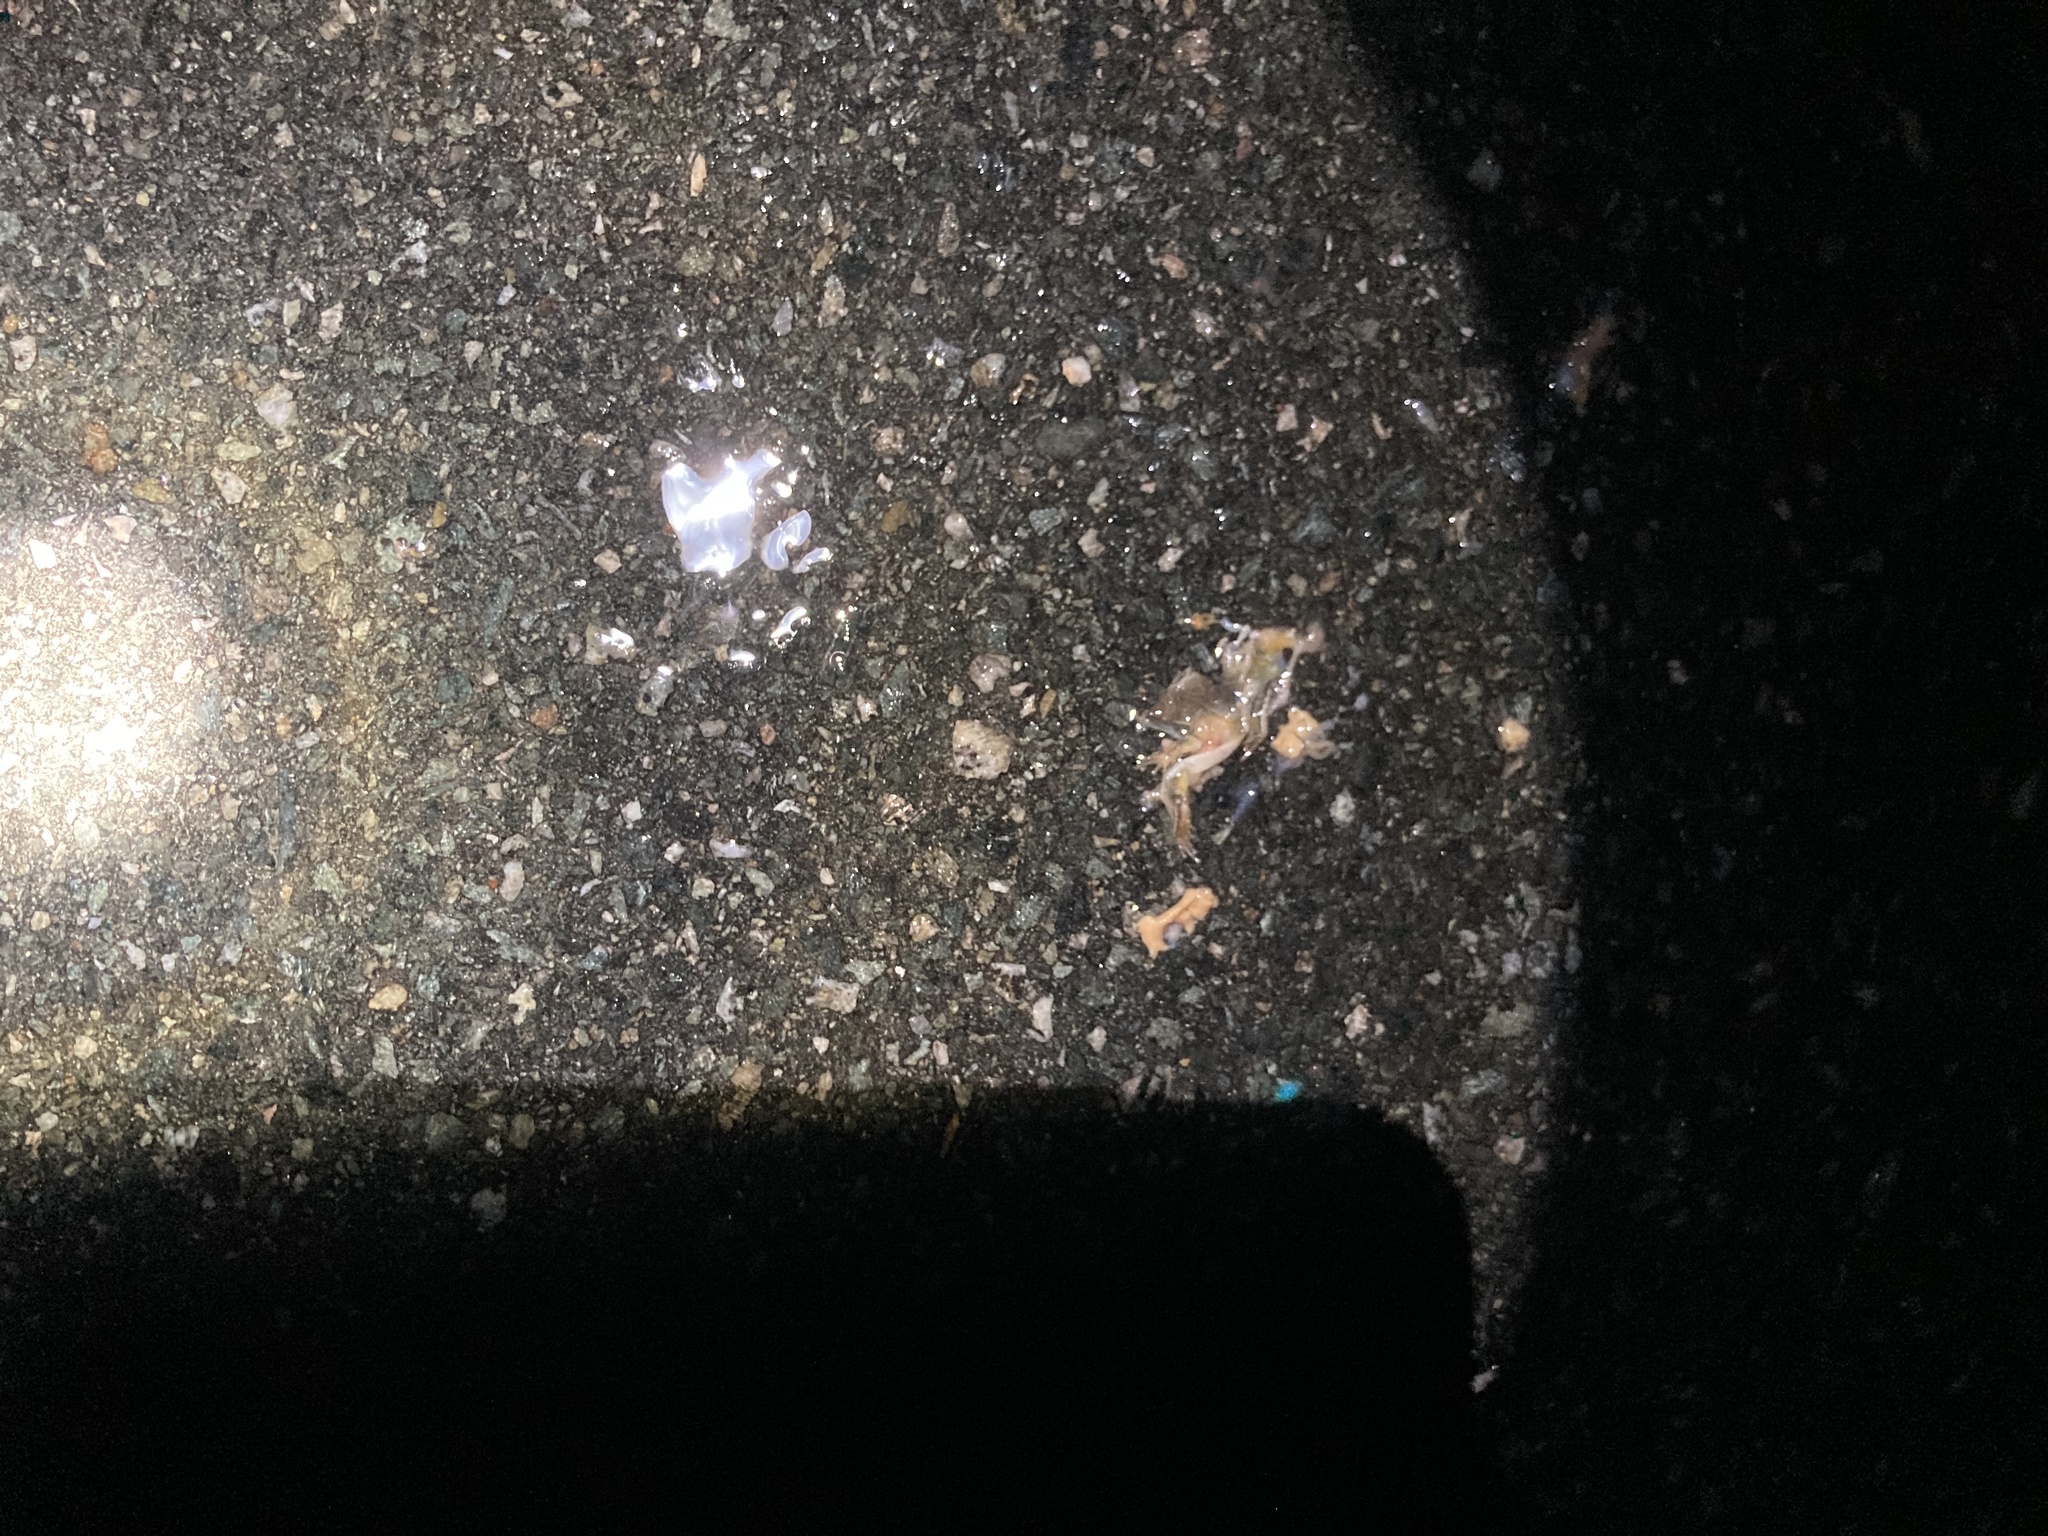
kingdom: Animalia
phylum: Chordata
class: Amphibia
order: Anura
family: Hylidae
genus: Pseudacris
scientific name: Pseudacris crucifer
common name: Spring peeper
